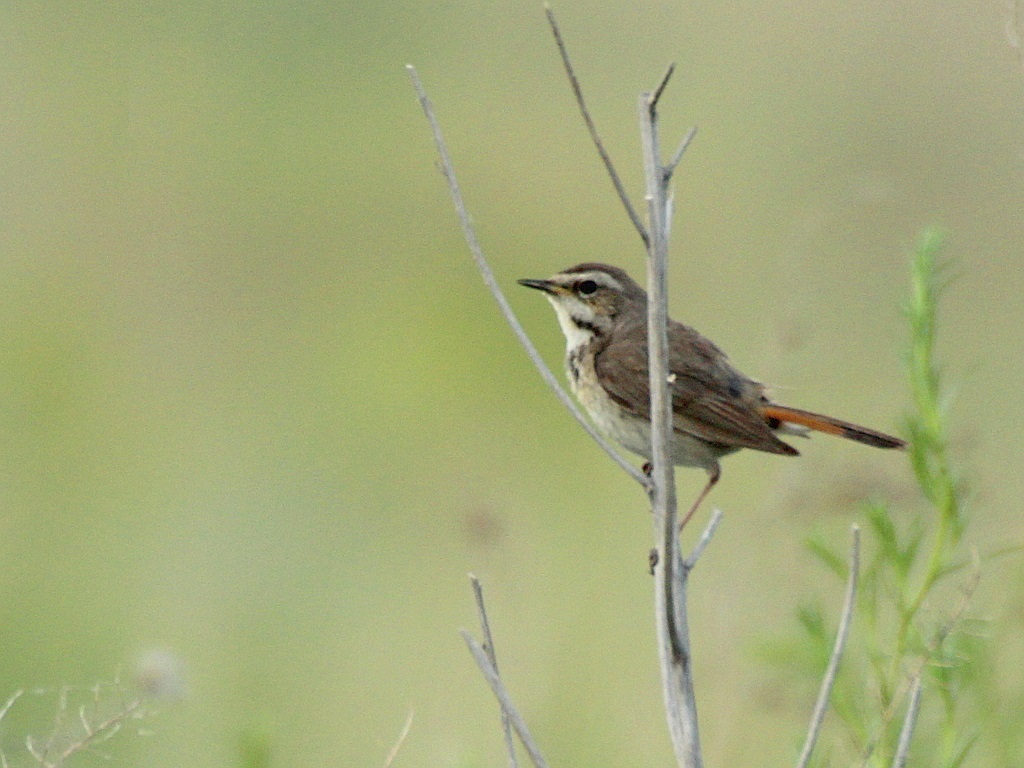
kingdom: Animalia
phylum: Chordata
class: Aves
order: Passeriformes
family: Muscicapidae
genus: Luscinia
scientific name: Luscinia svecica
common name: Bluethroat
